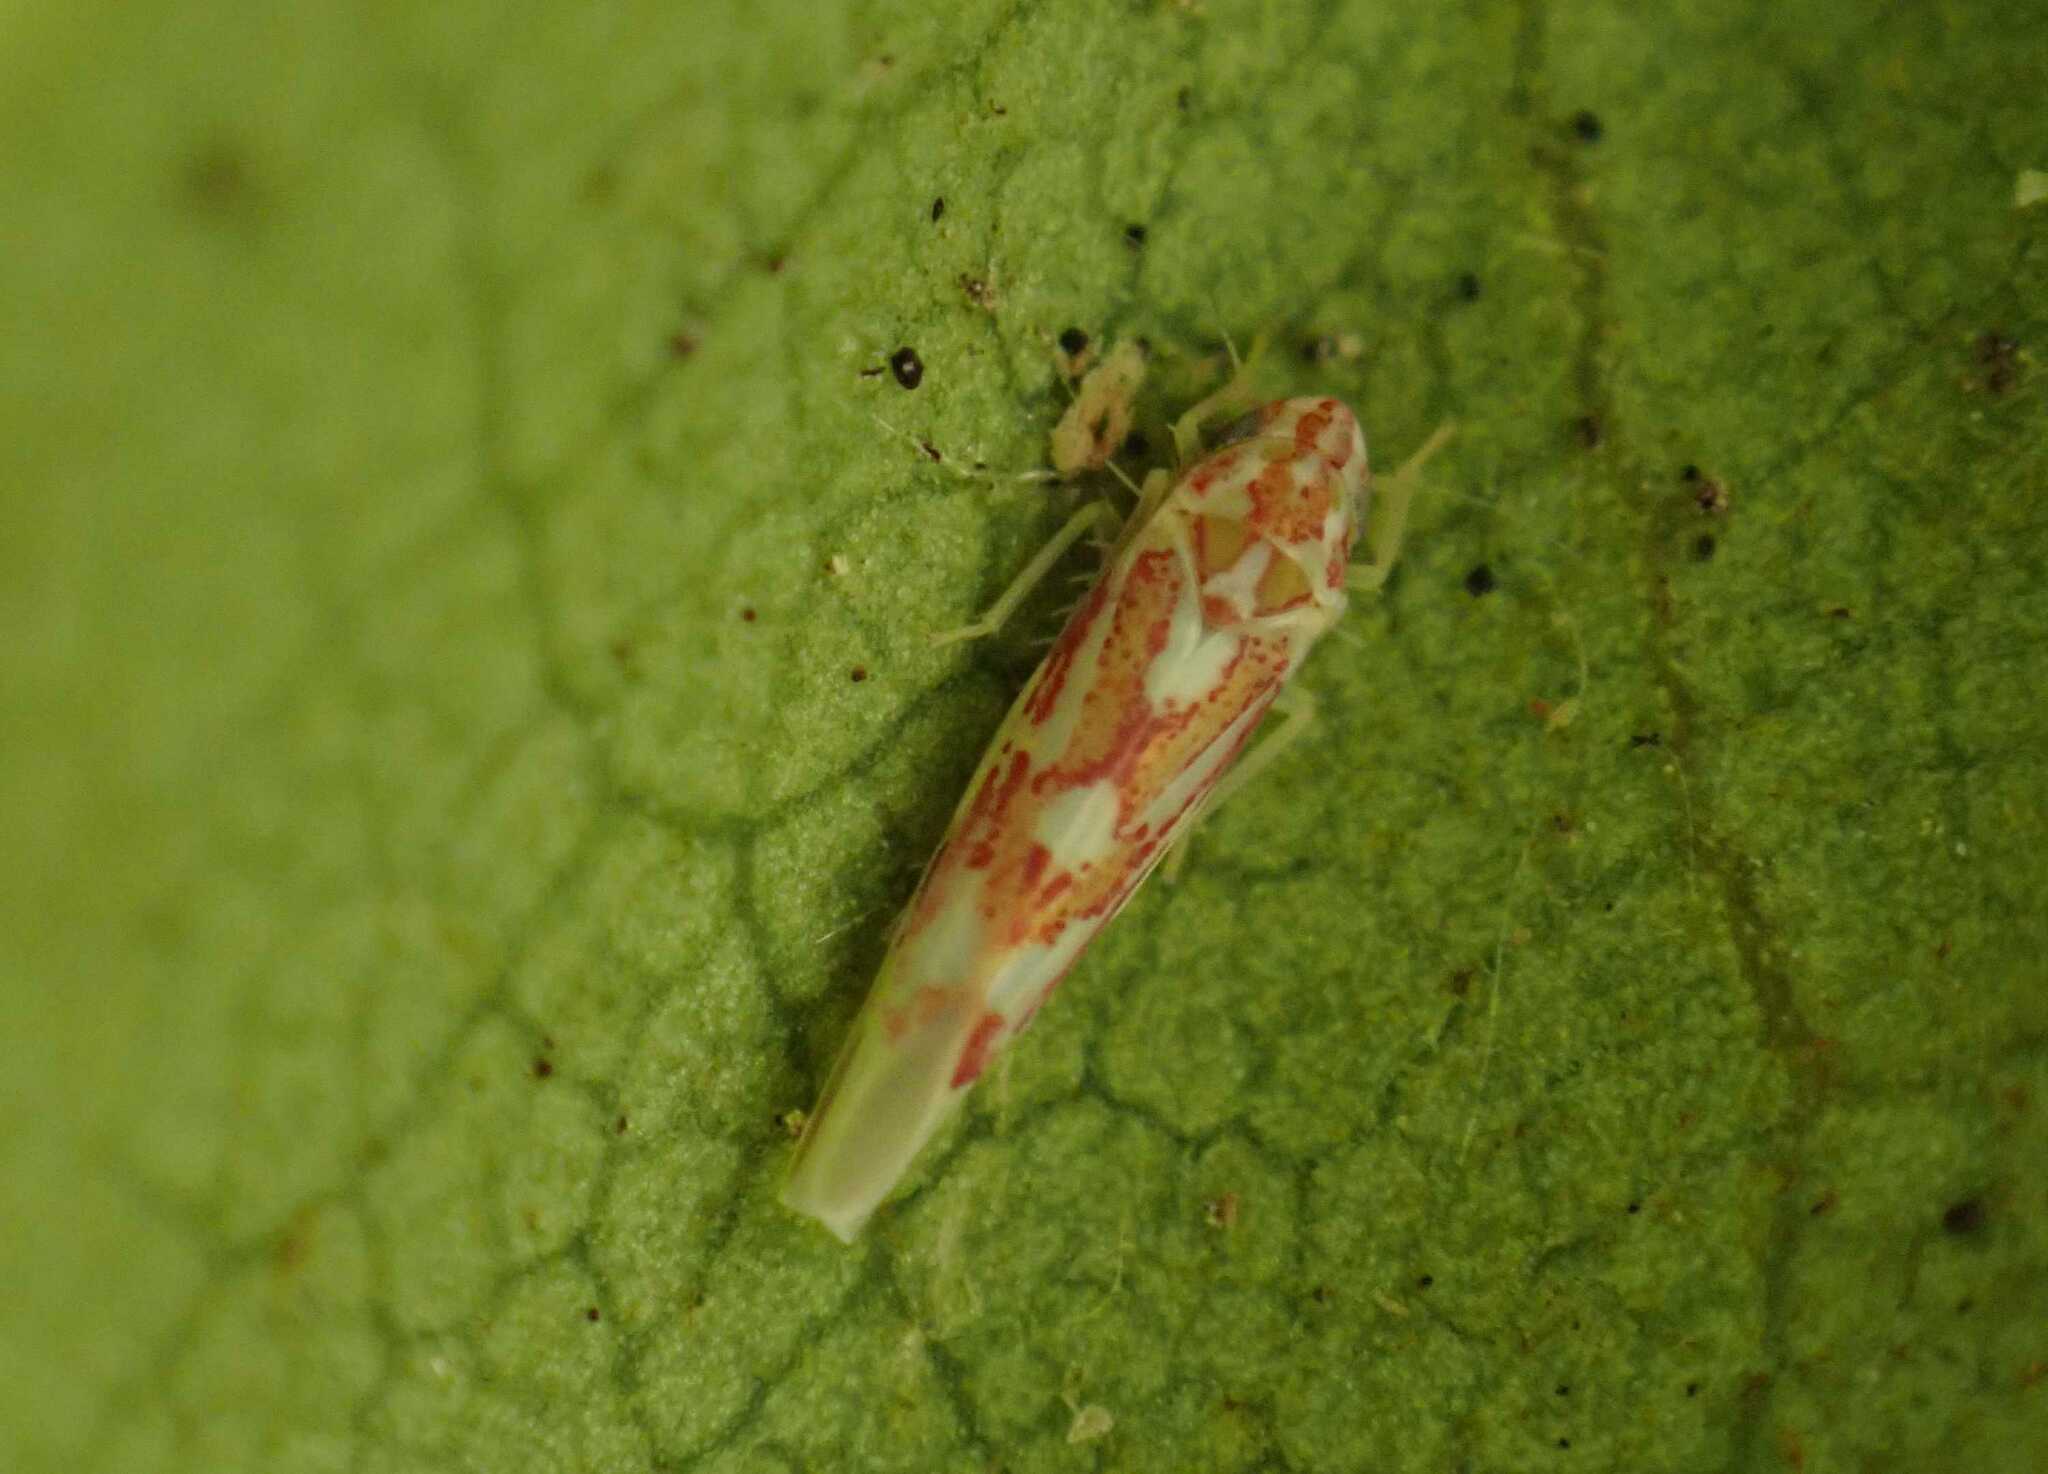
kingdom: Animalia
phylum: Arthropoda
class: Insecta
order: Hemiptera
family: Cicadellidae
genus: Zygina
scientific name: Zygina griseombra
